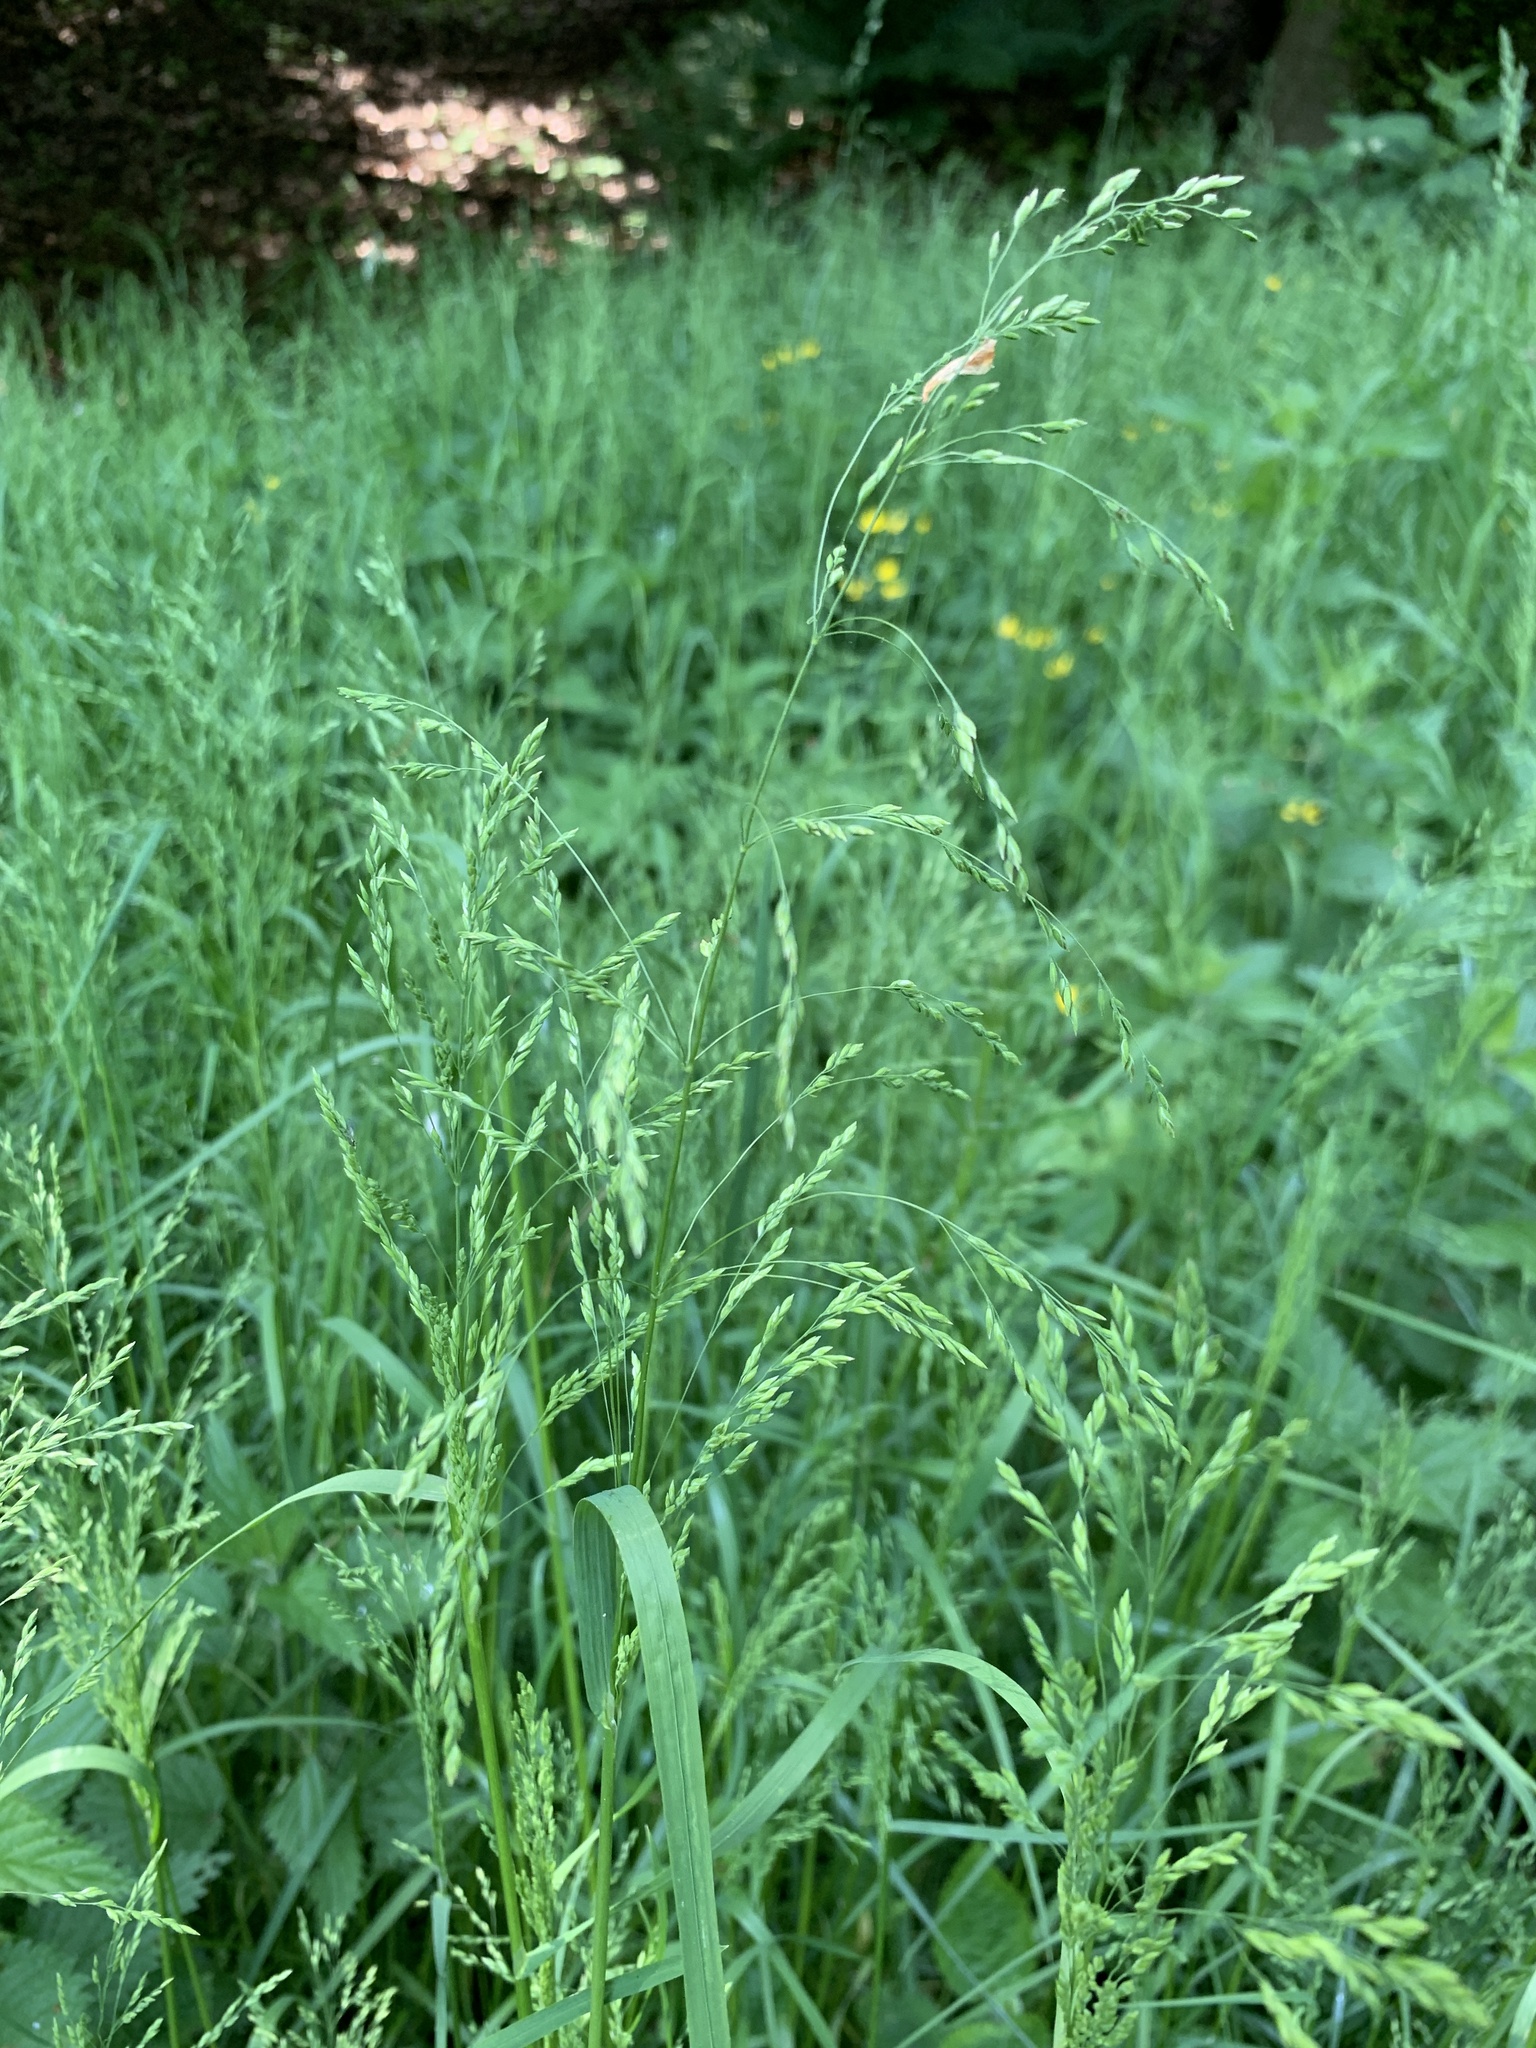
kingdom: Plantae
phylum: Tracheophyta
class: Magnoliopsida
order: Ranunculales
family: Ranunculaceae
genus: Ranunculus
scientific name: Ranunculus repens
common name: Creeping buttercup
